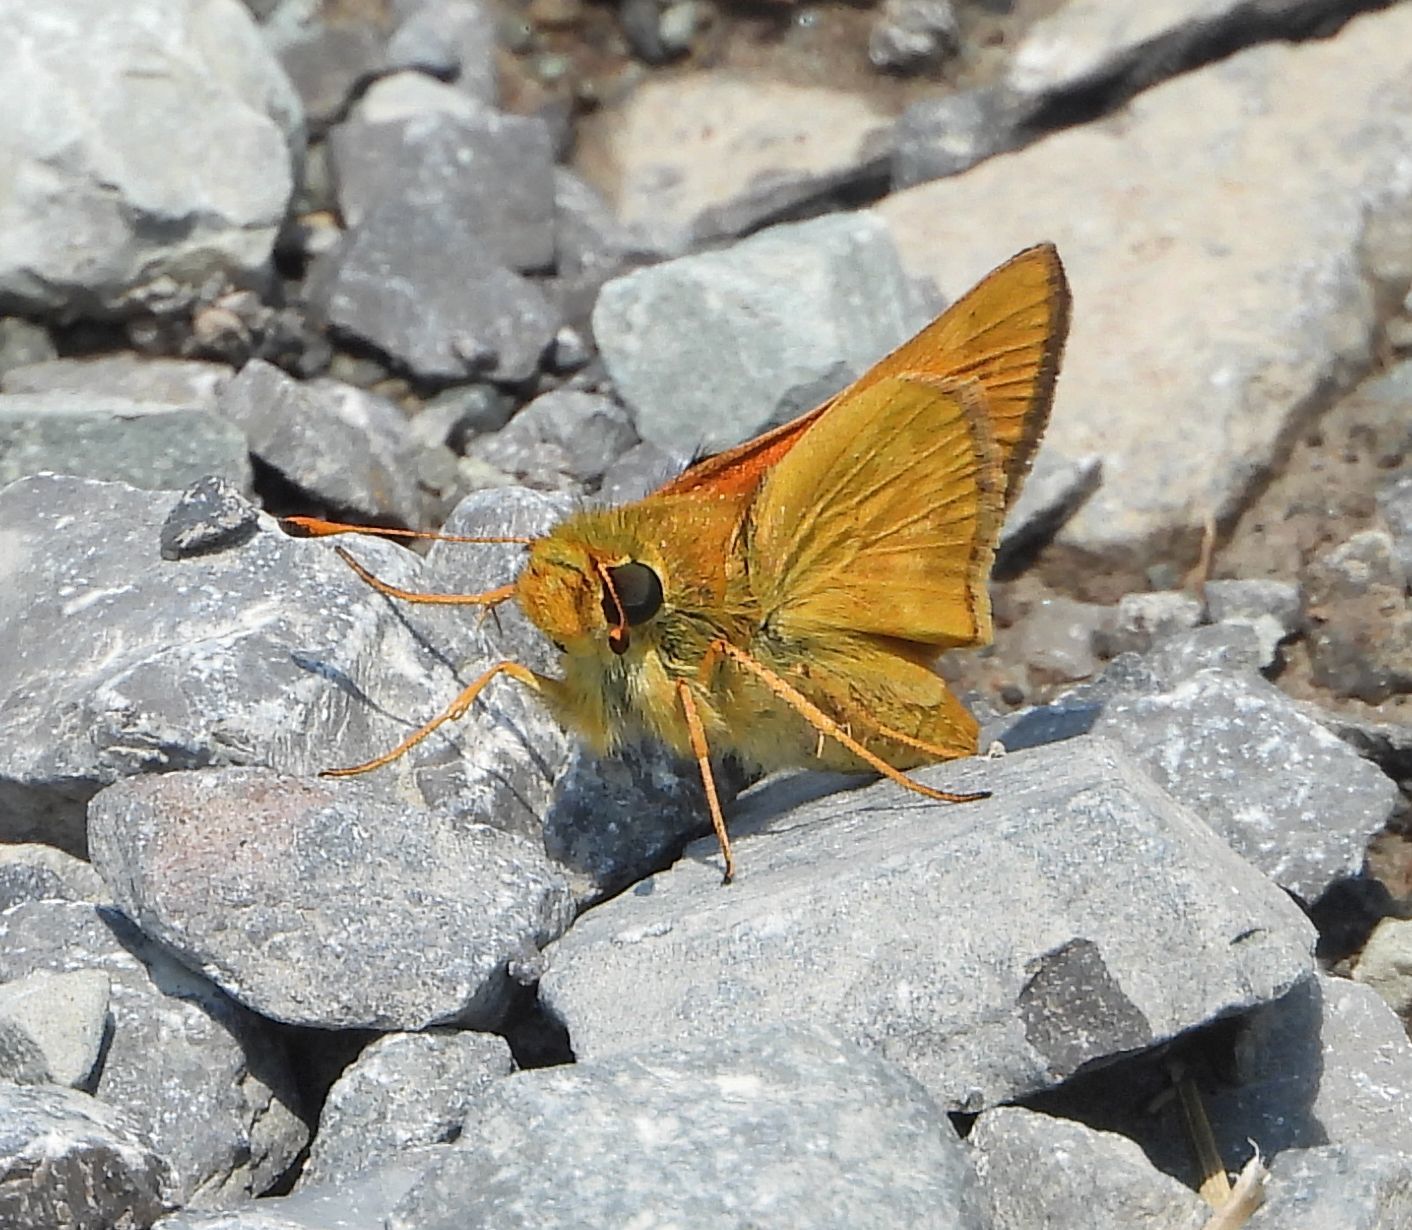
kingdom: Animalia
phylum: Arthropoda
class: Insecta
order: Lepidoptera
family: Hesperiidae
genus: Hesperia
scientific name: Hesperia sassacus
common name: Indian skipper
